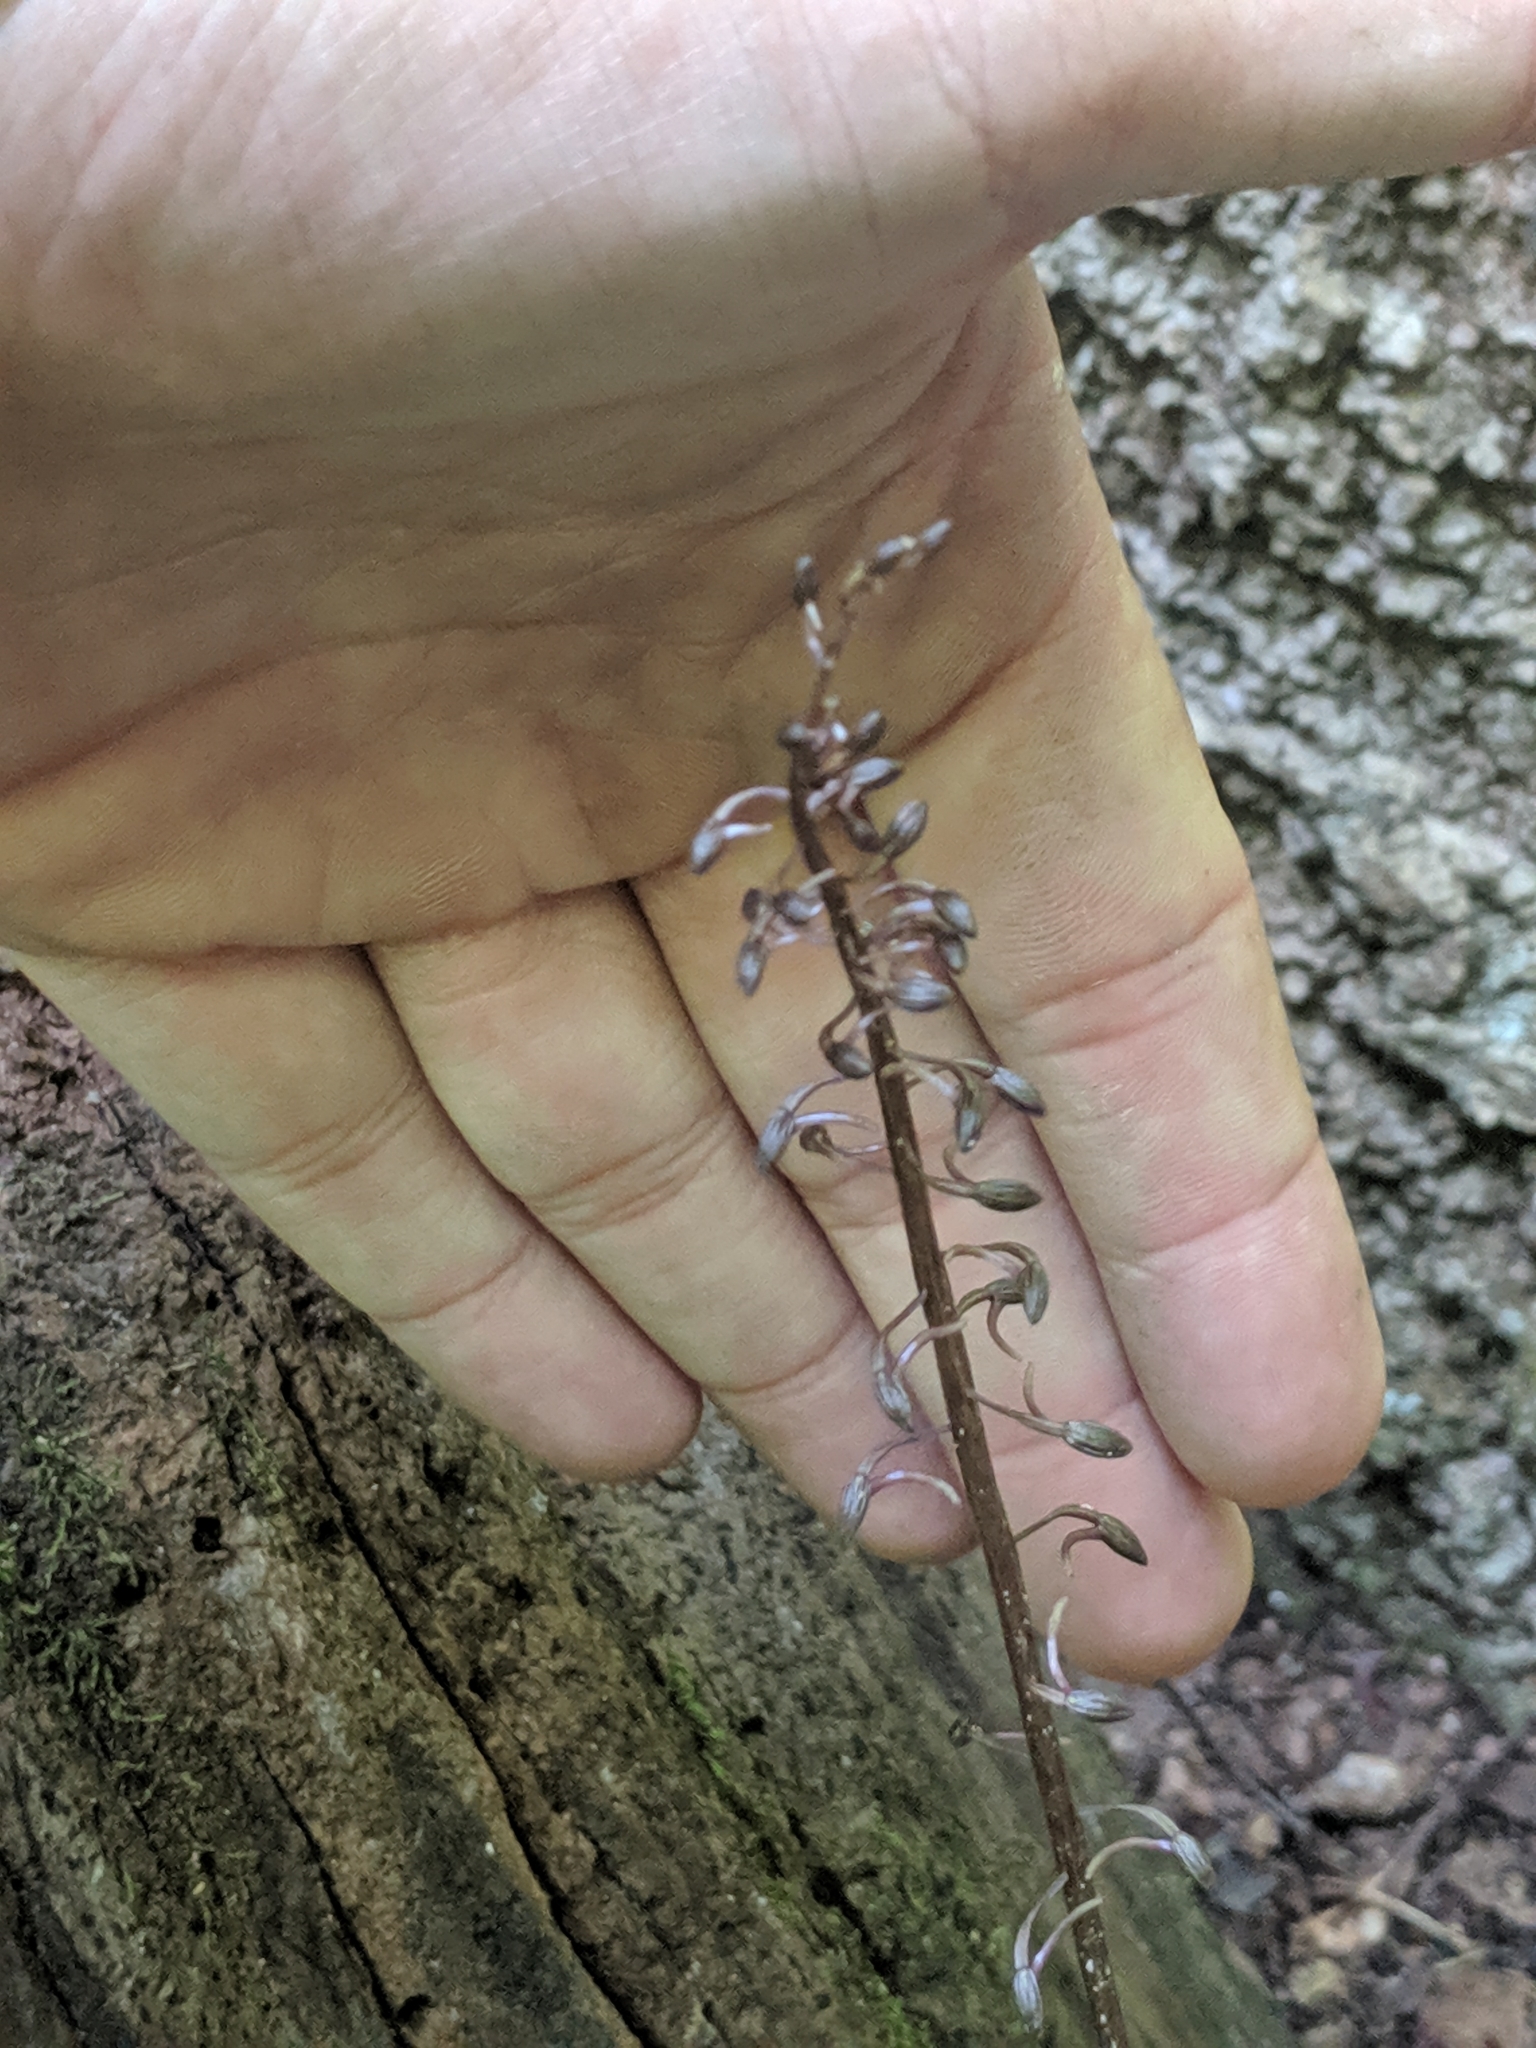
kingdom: Plantae
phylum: Tracheophyta
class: Liliopsida
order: Asparagales
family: Orchidaceae
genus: Tipularia
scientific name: Tipularia discolor
